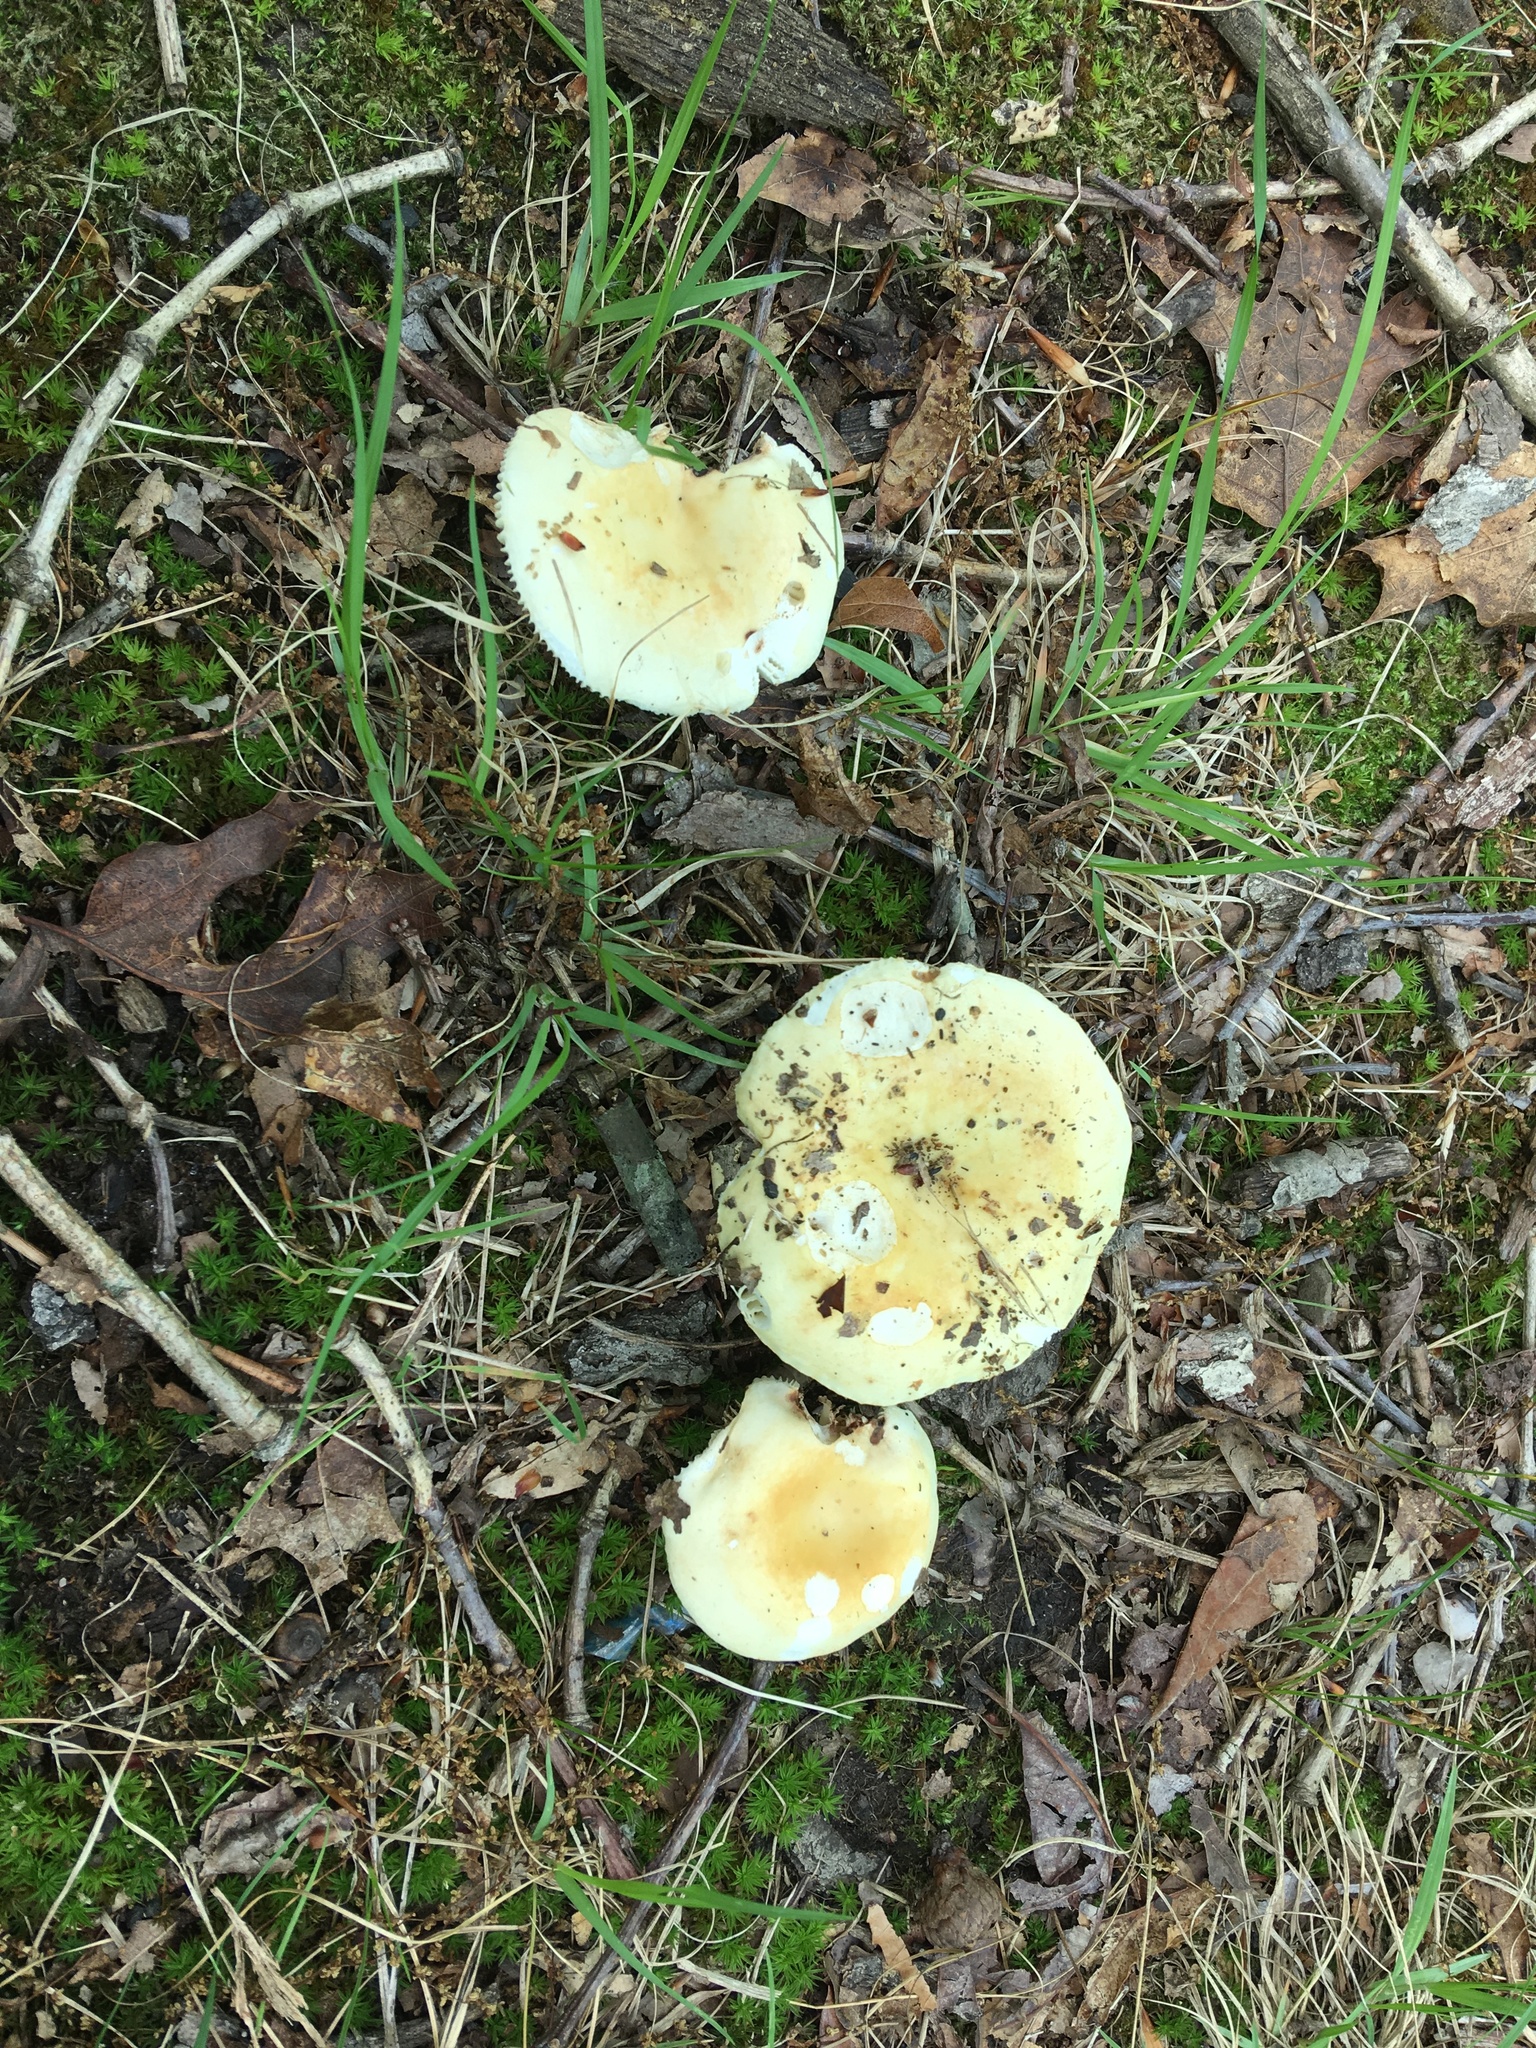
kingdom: Fungi
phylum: Basidiomycota
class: Agaricomycetes
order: Russulales
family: Russulaceae
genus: Russula
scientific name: Russula ochroleucoides
